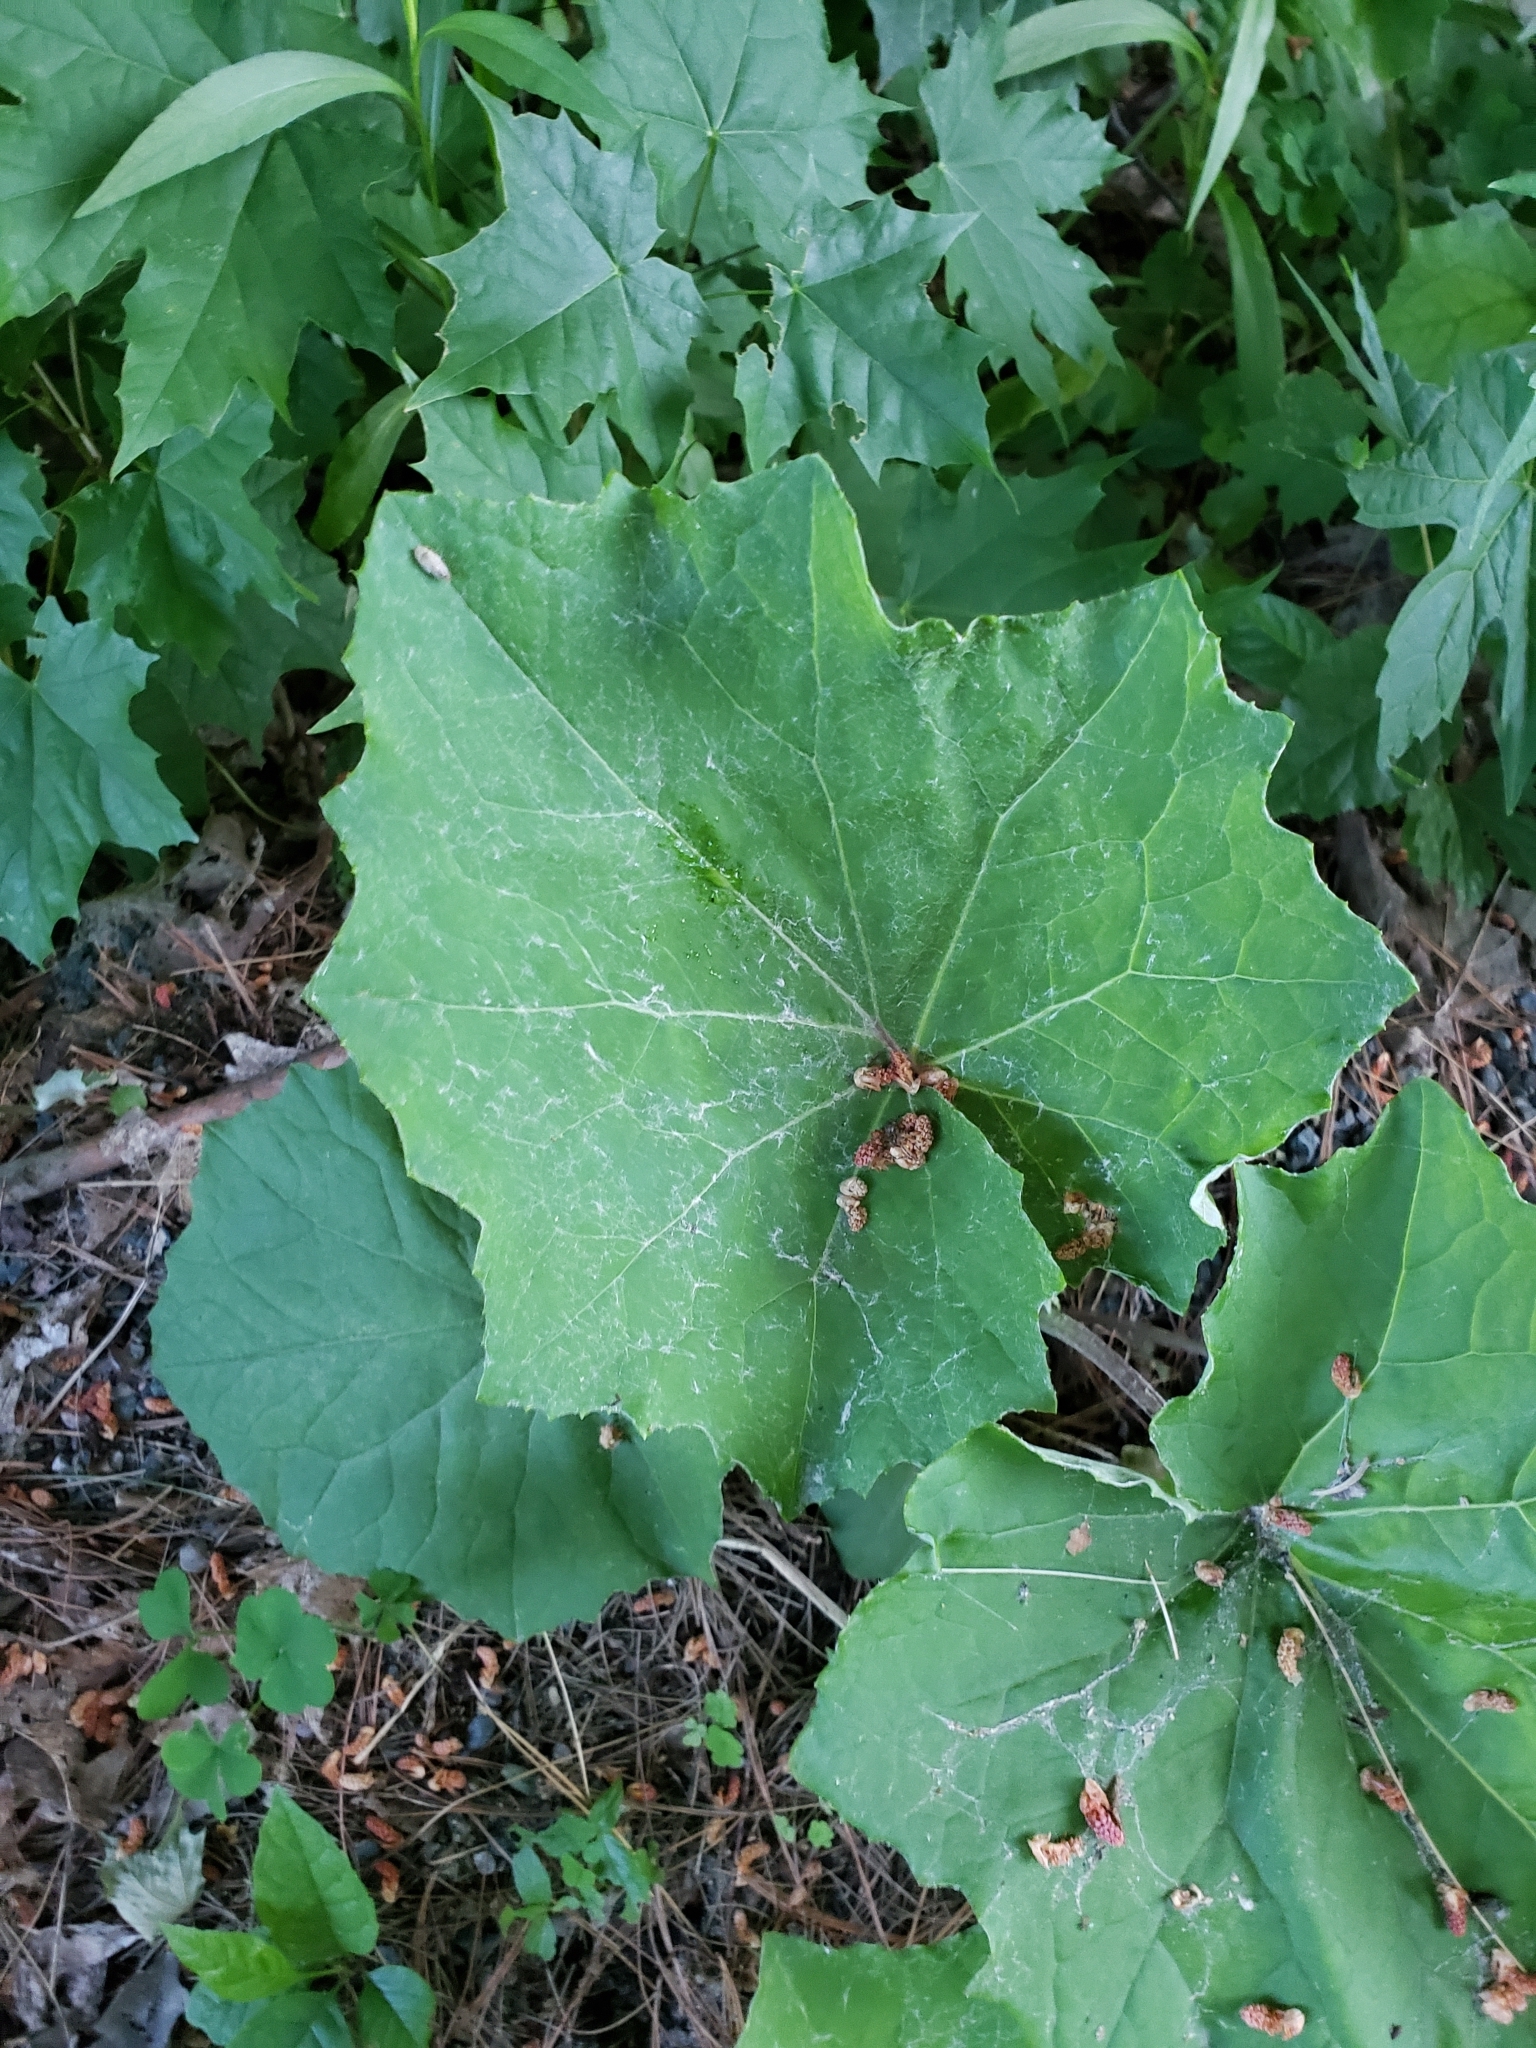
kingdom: Plantae
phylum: Tracheophyta
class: Magnoliopsida
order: Asterales
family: Asteraceae
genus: Tussilago
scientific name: Tussilago farfara
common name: Coltsfoot
